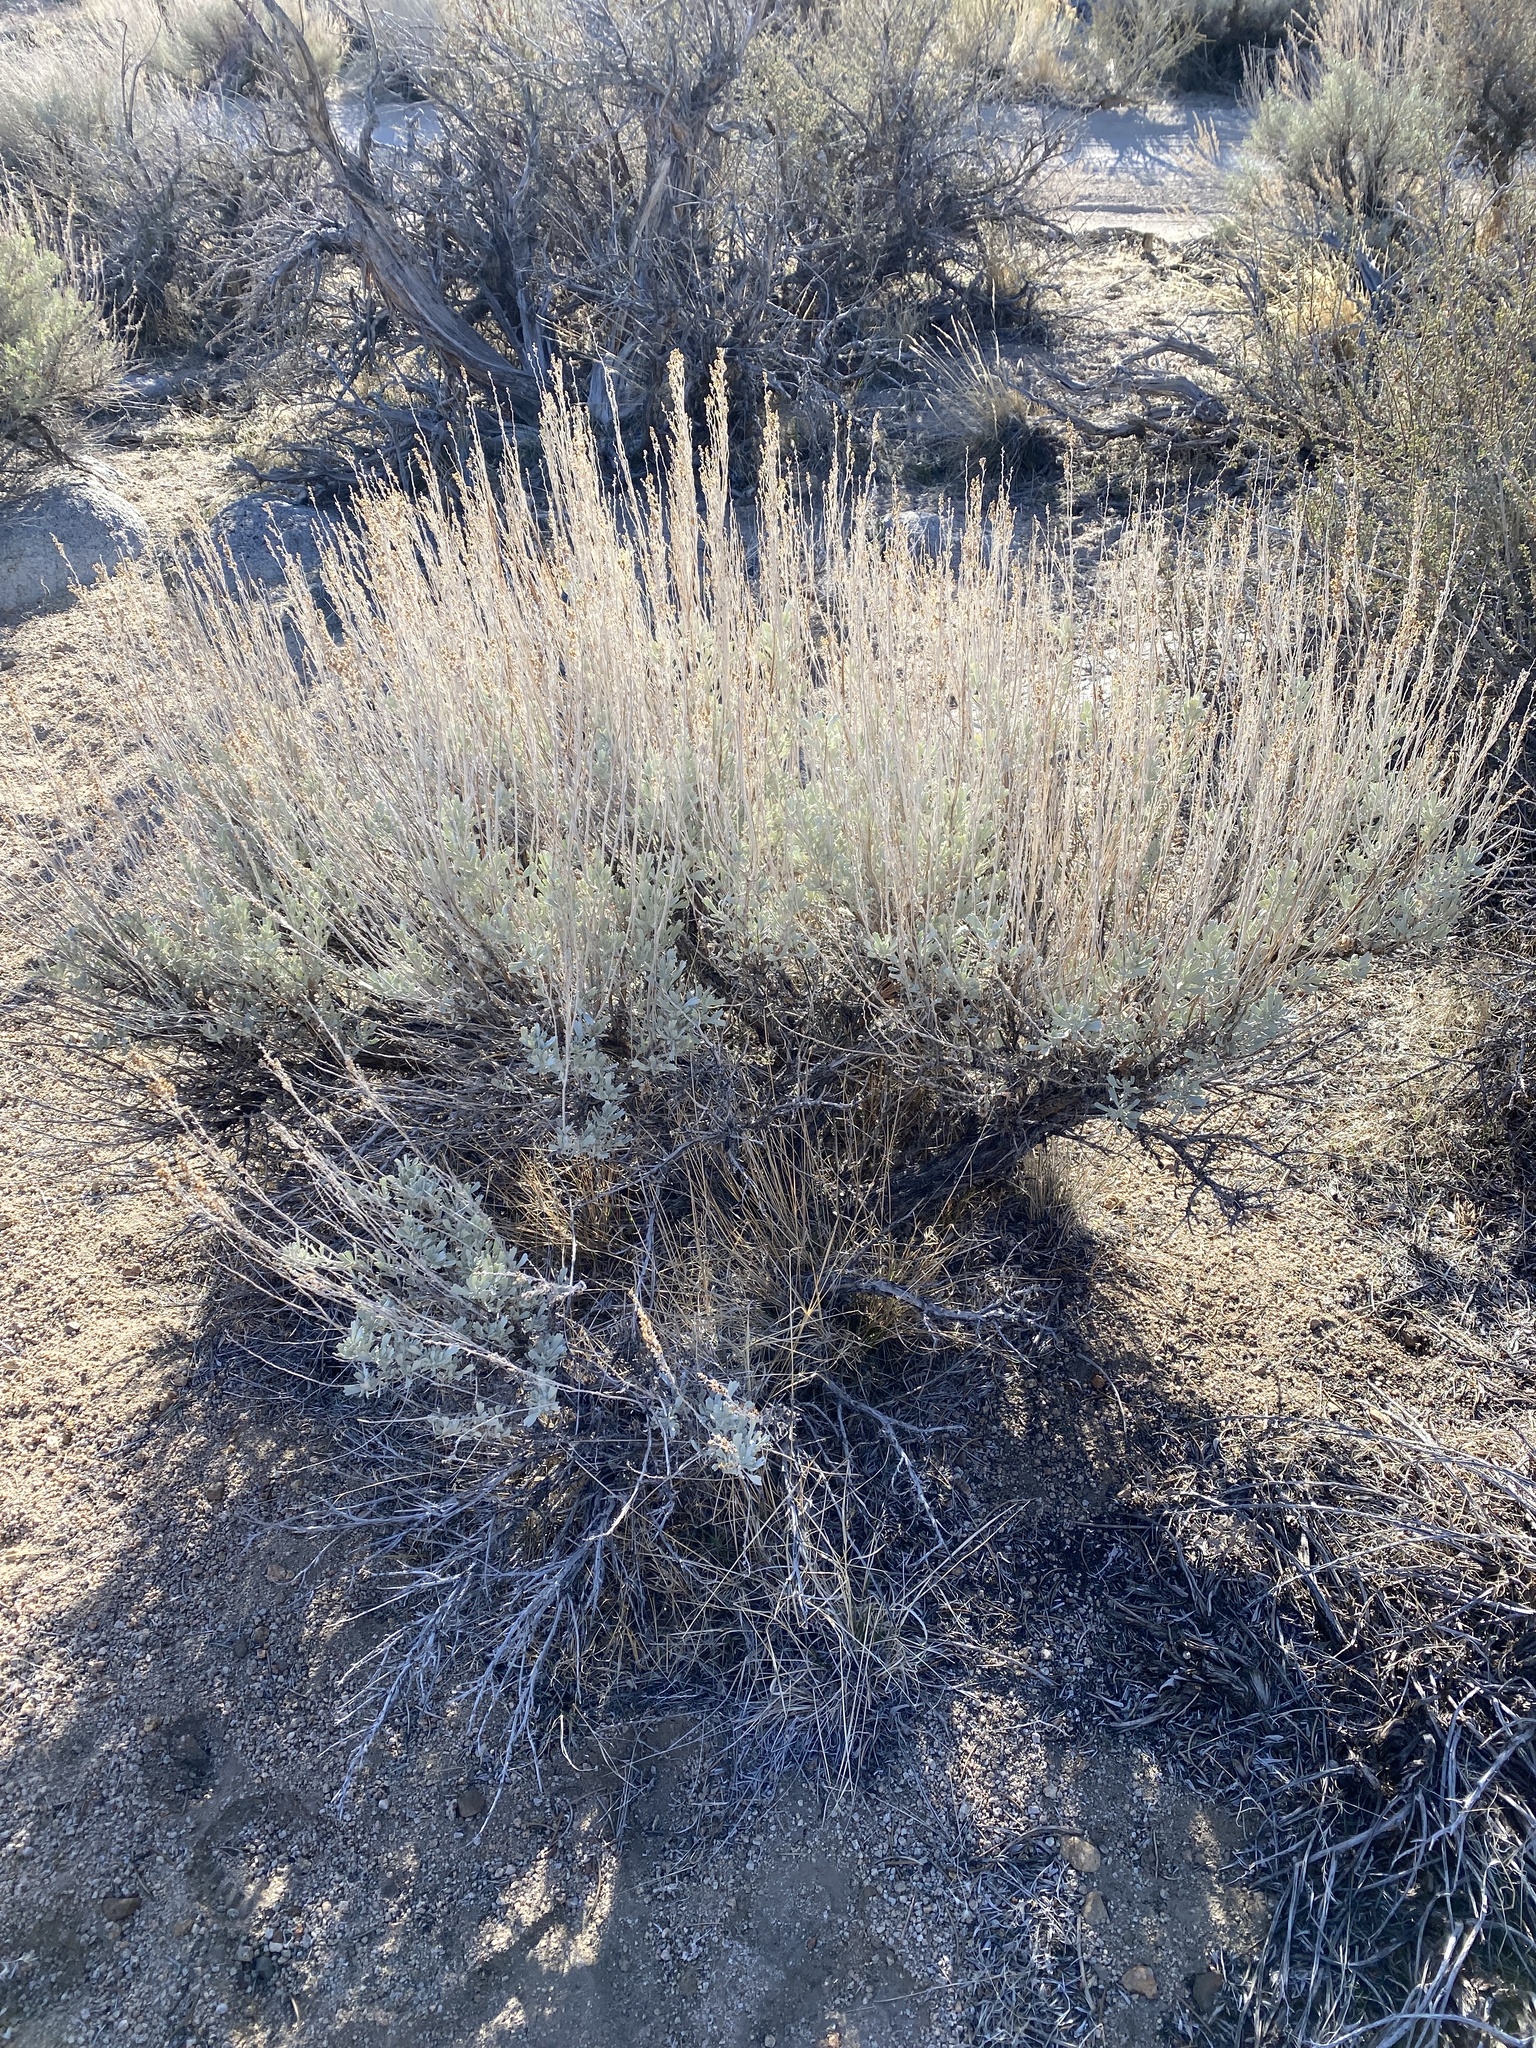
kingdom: Plantae
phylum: Tracheophyta
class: Magnoliopsida
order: Asterales
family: Asteraceae
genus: Artemisia
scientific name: Artemisia tridentata
